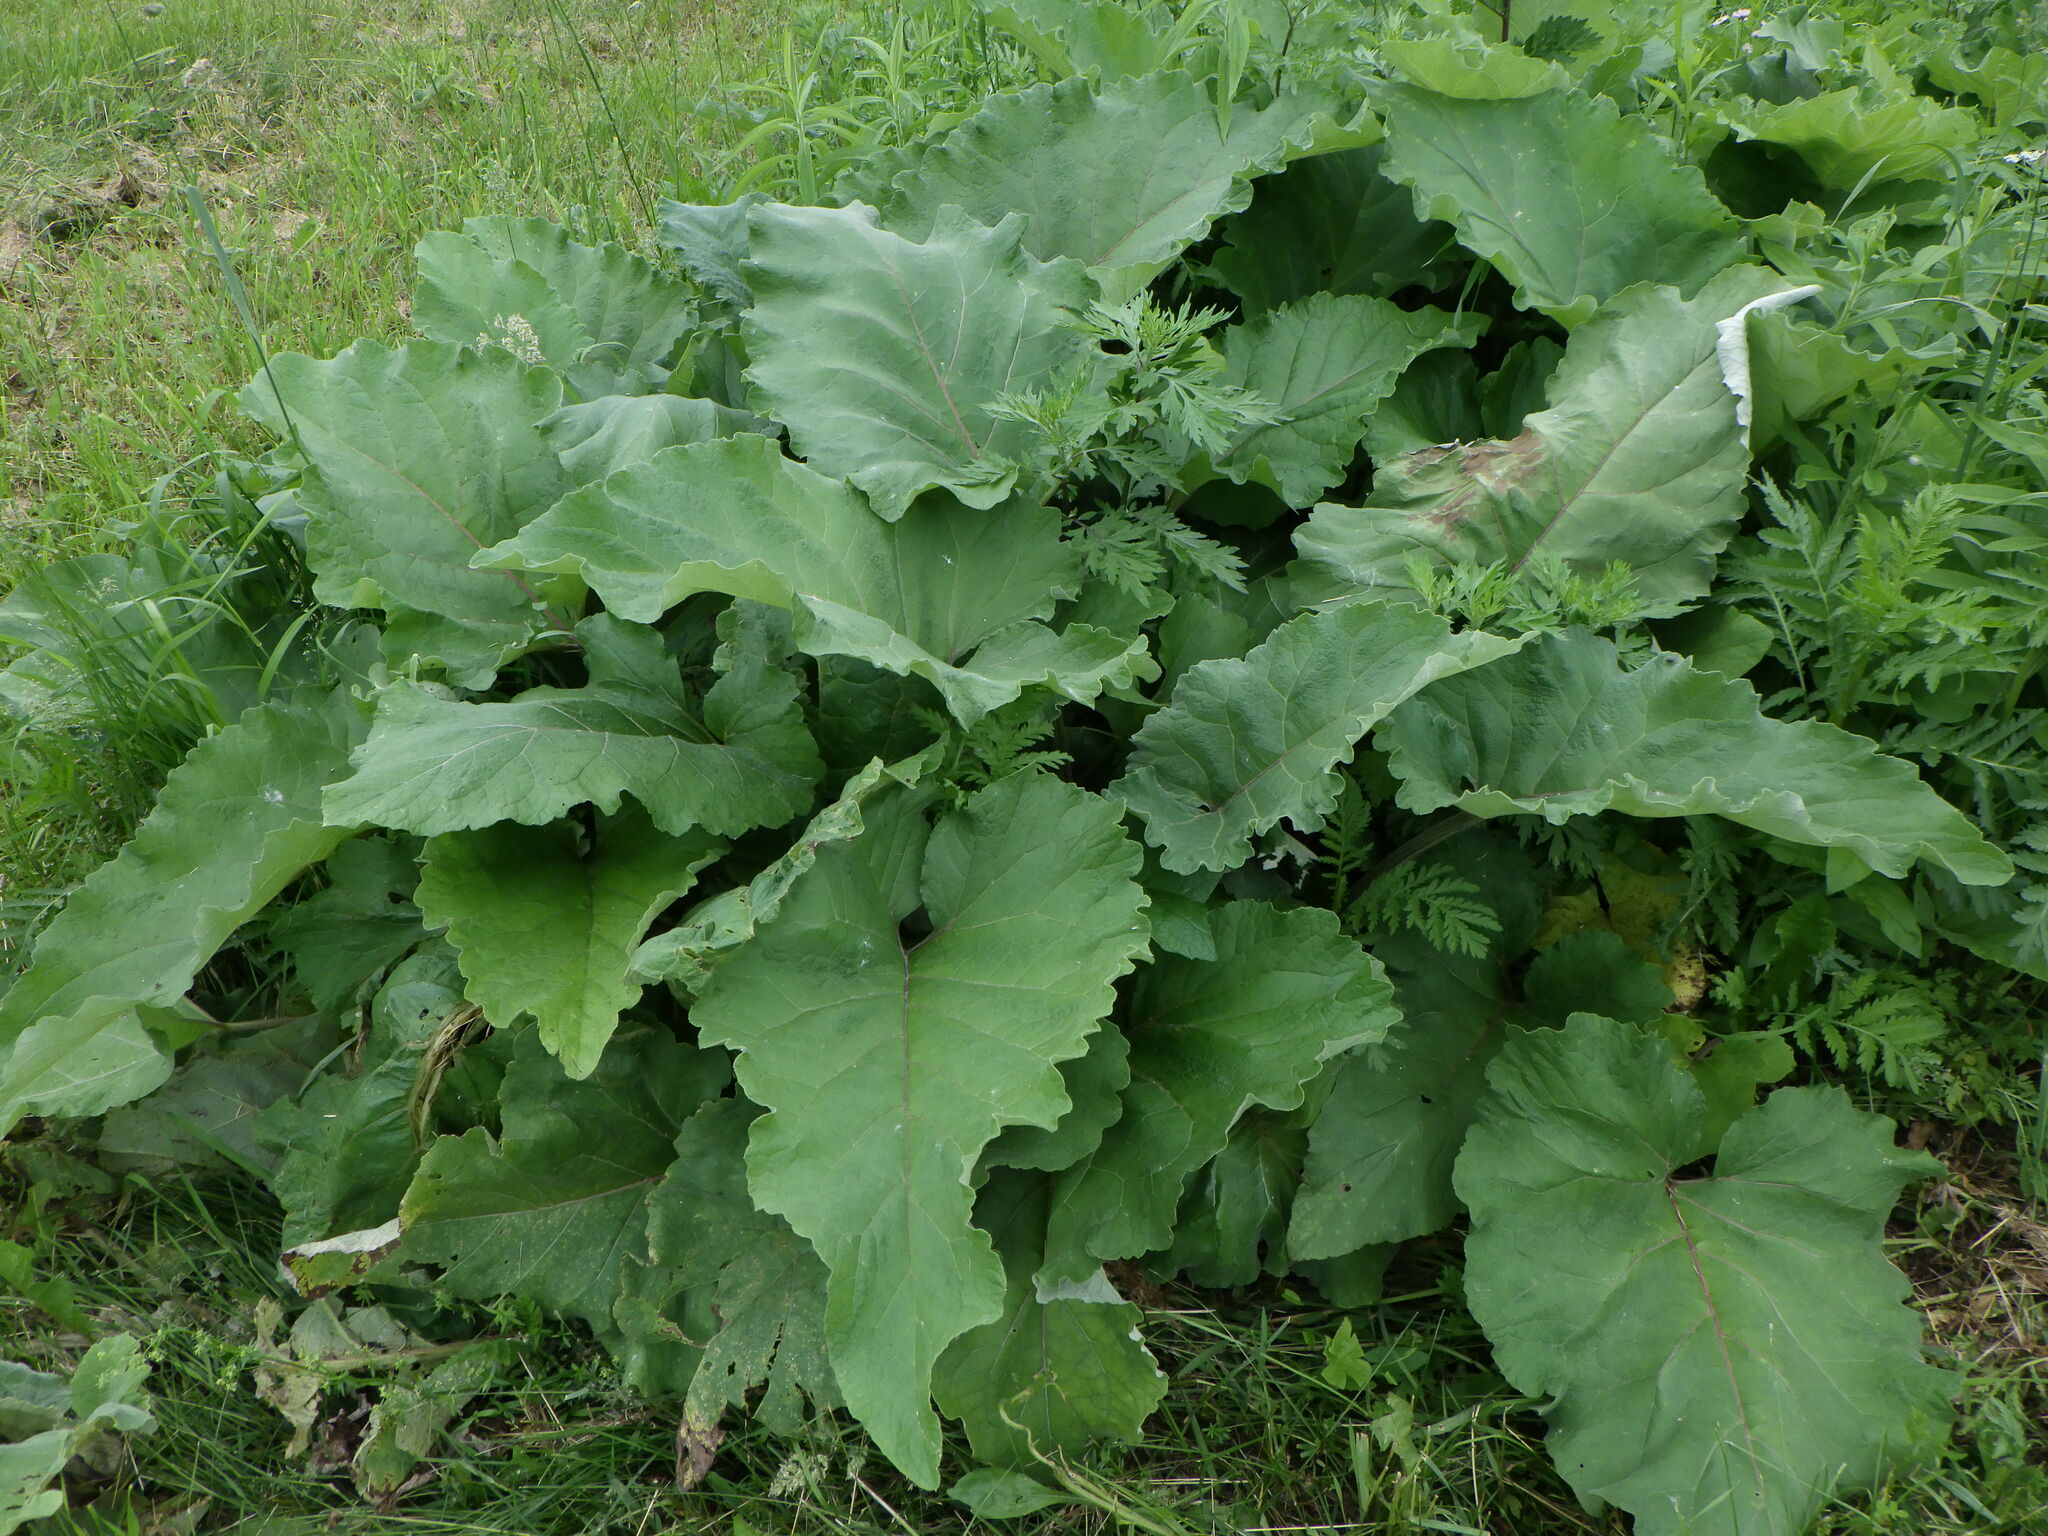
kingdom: Plantae
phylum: Tracheophyta
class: Magnoliopsida
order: Asterales
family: Asteraceae
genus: Arctium
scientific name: Arctium lappa
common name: Greater burdock
